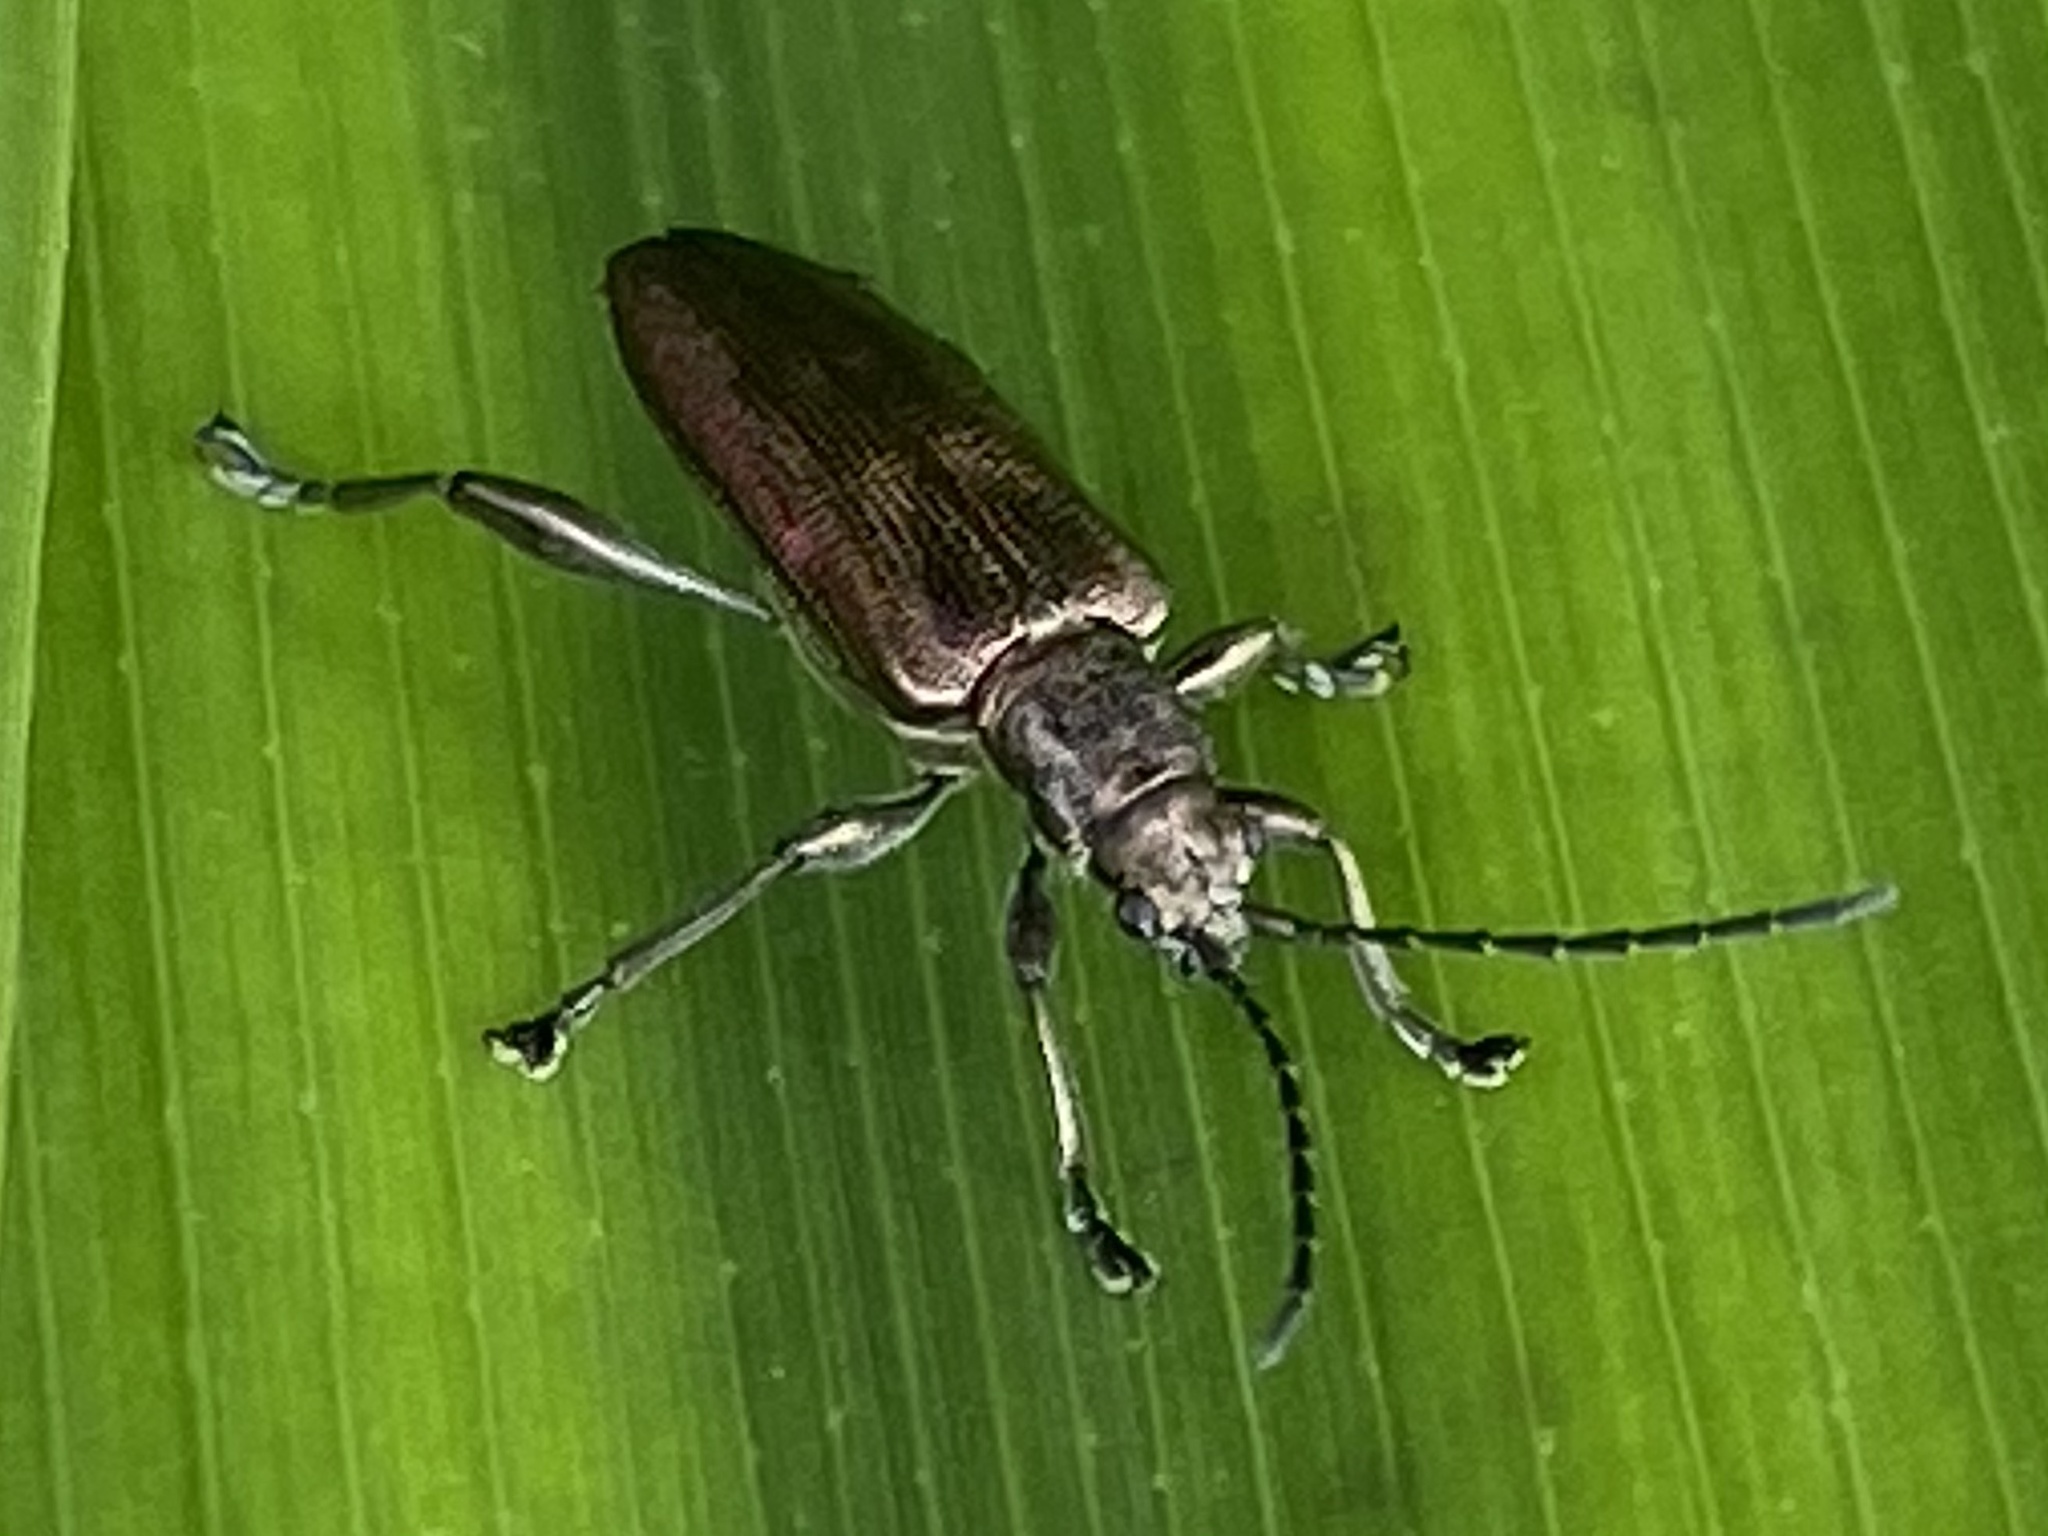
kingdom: Animalia
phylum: Arthropoda
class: Insecta
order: Coleoptera
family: Chrysomelidae
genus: Donacia
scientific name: Donacia marginata
